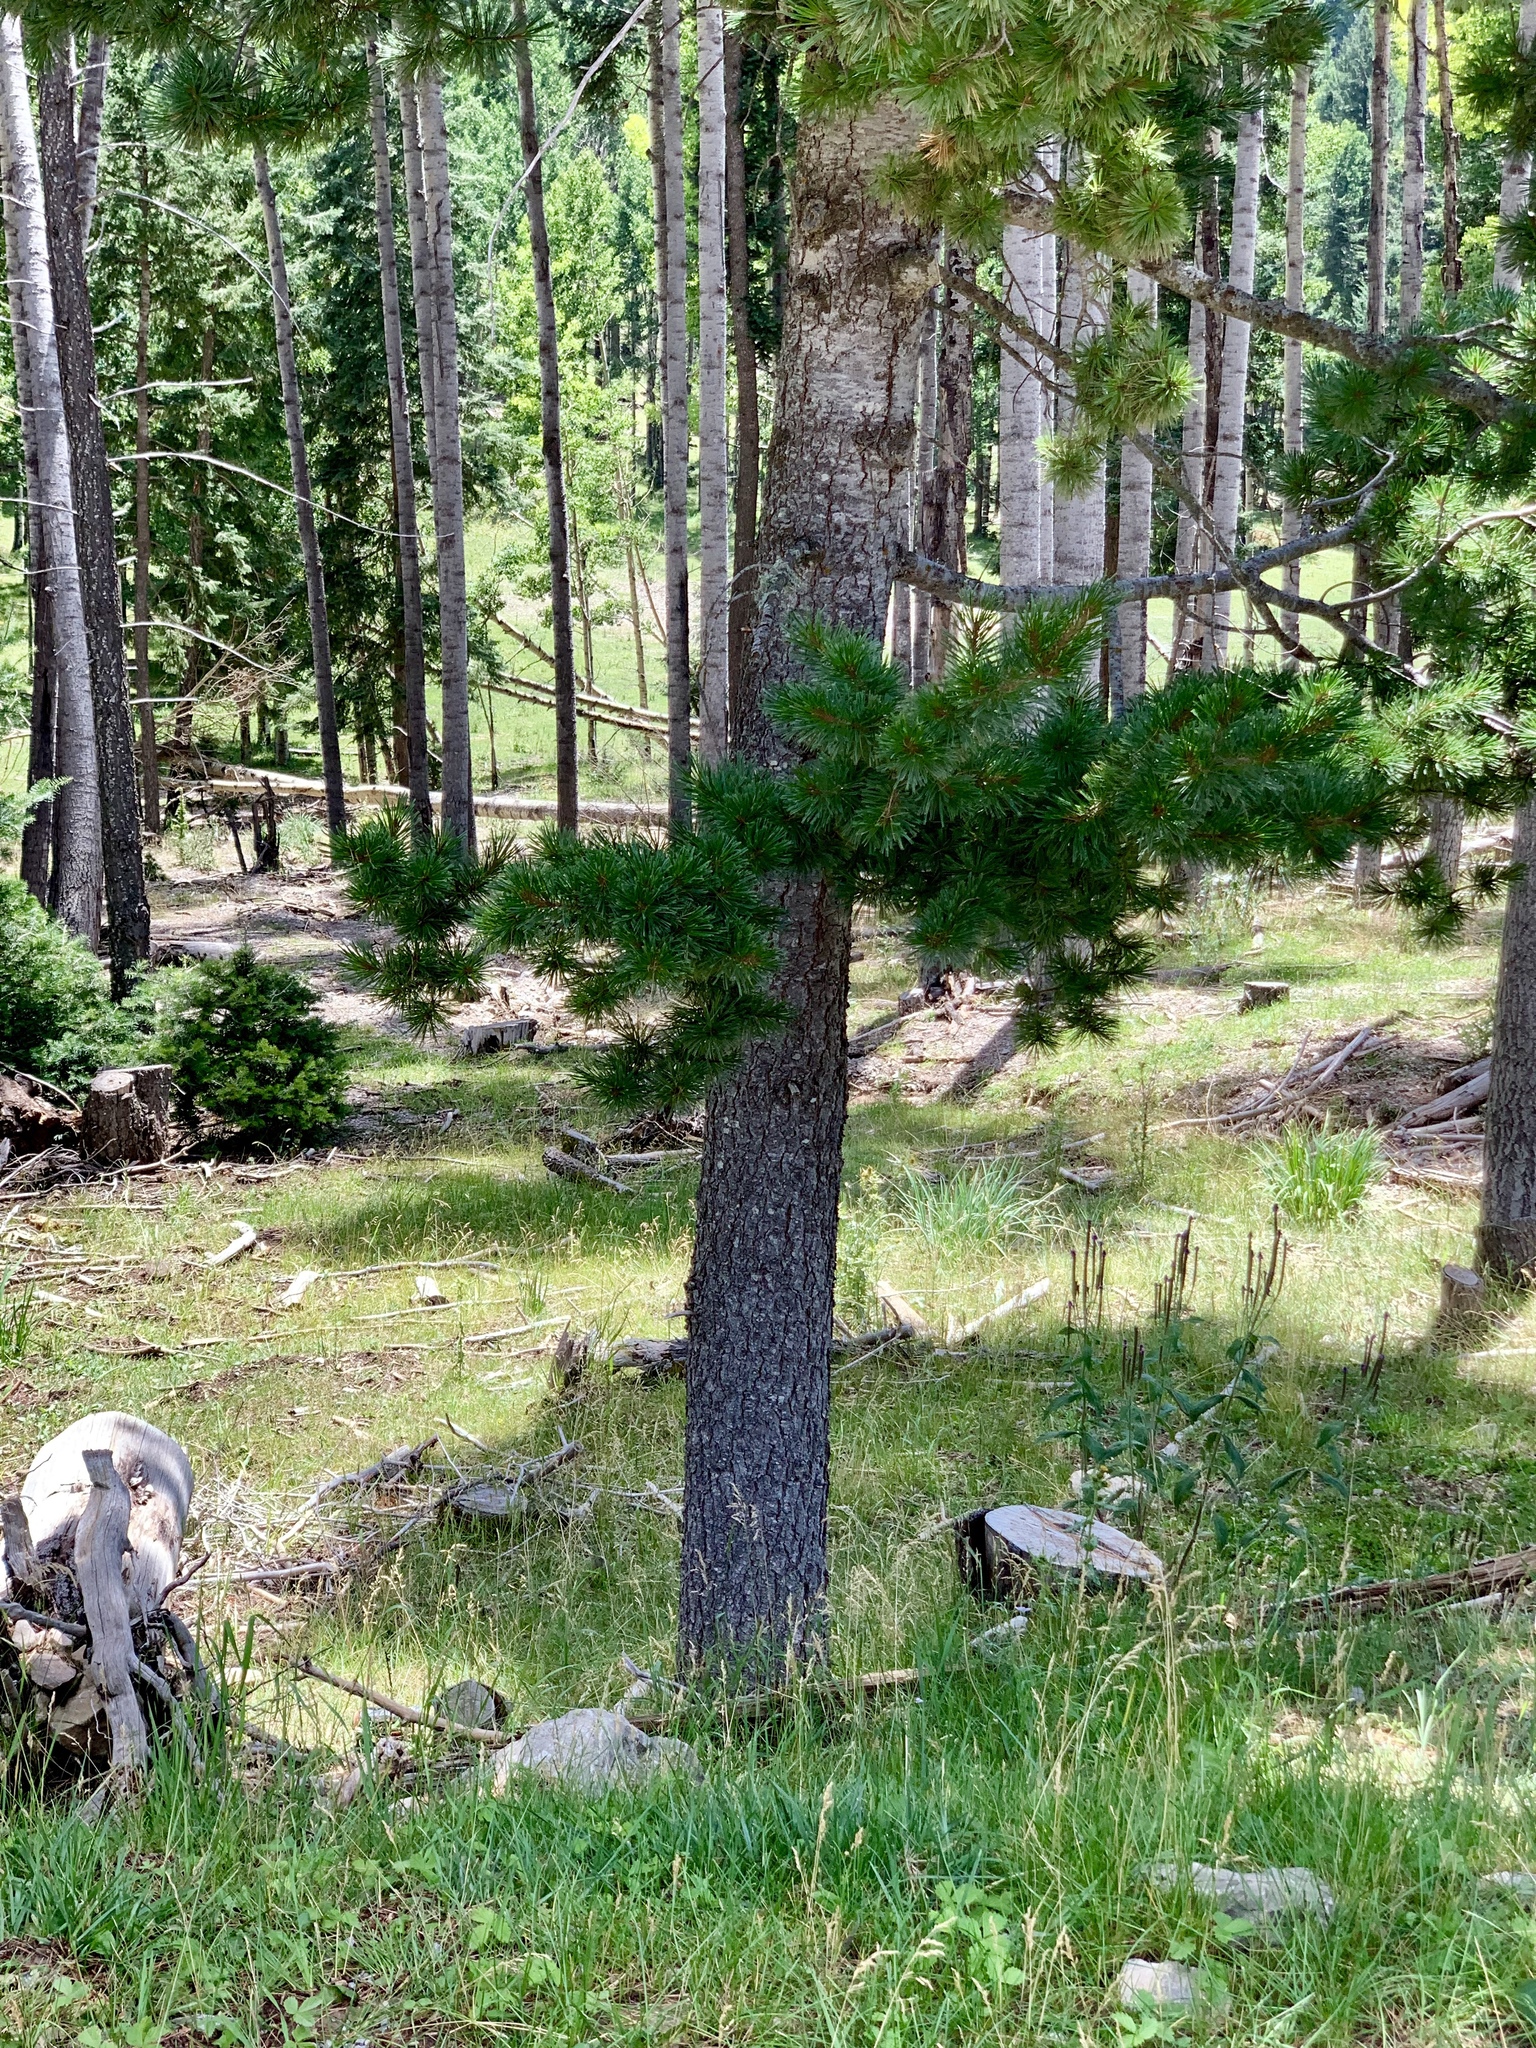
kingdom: Plantae
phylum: Tracheophyta
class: Pinopsida
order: Pinales
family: Pinaceae
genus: Pinus
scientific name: Pinus strobiformis
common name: Southwestern white pine
